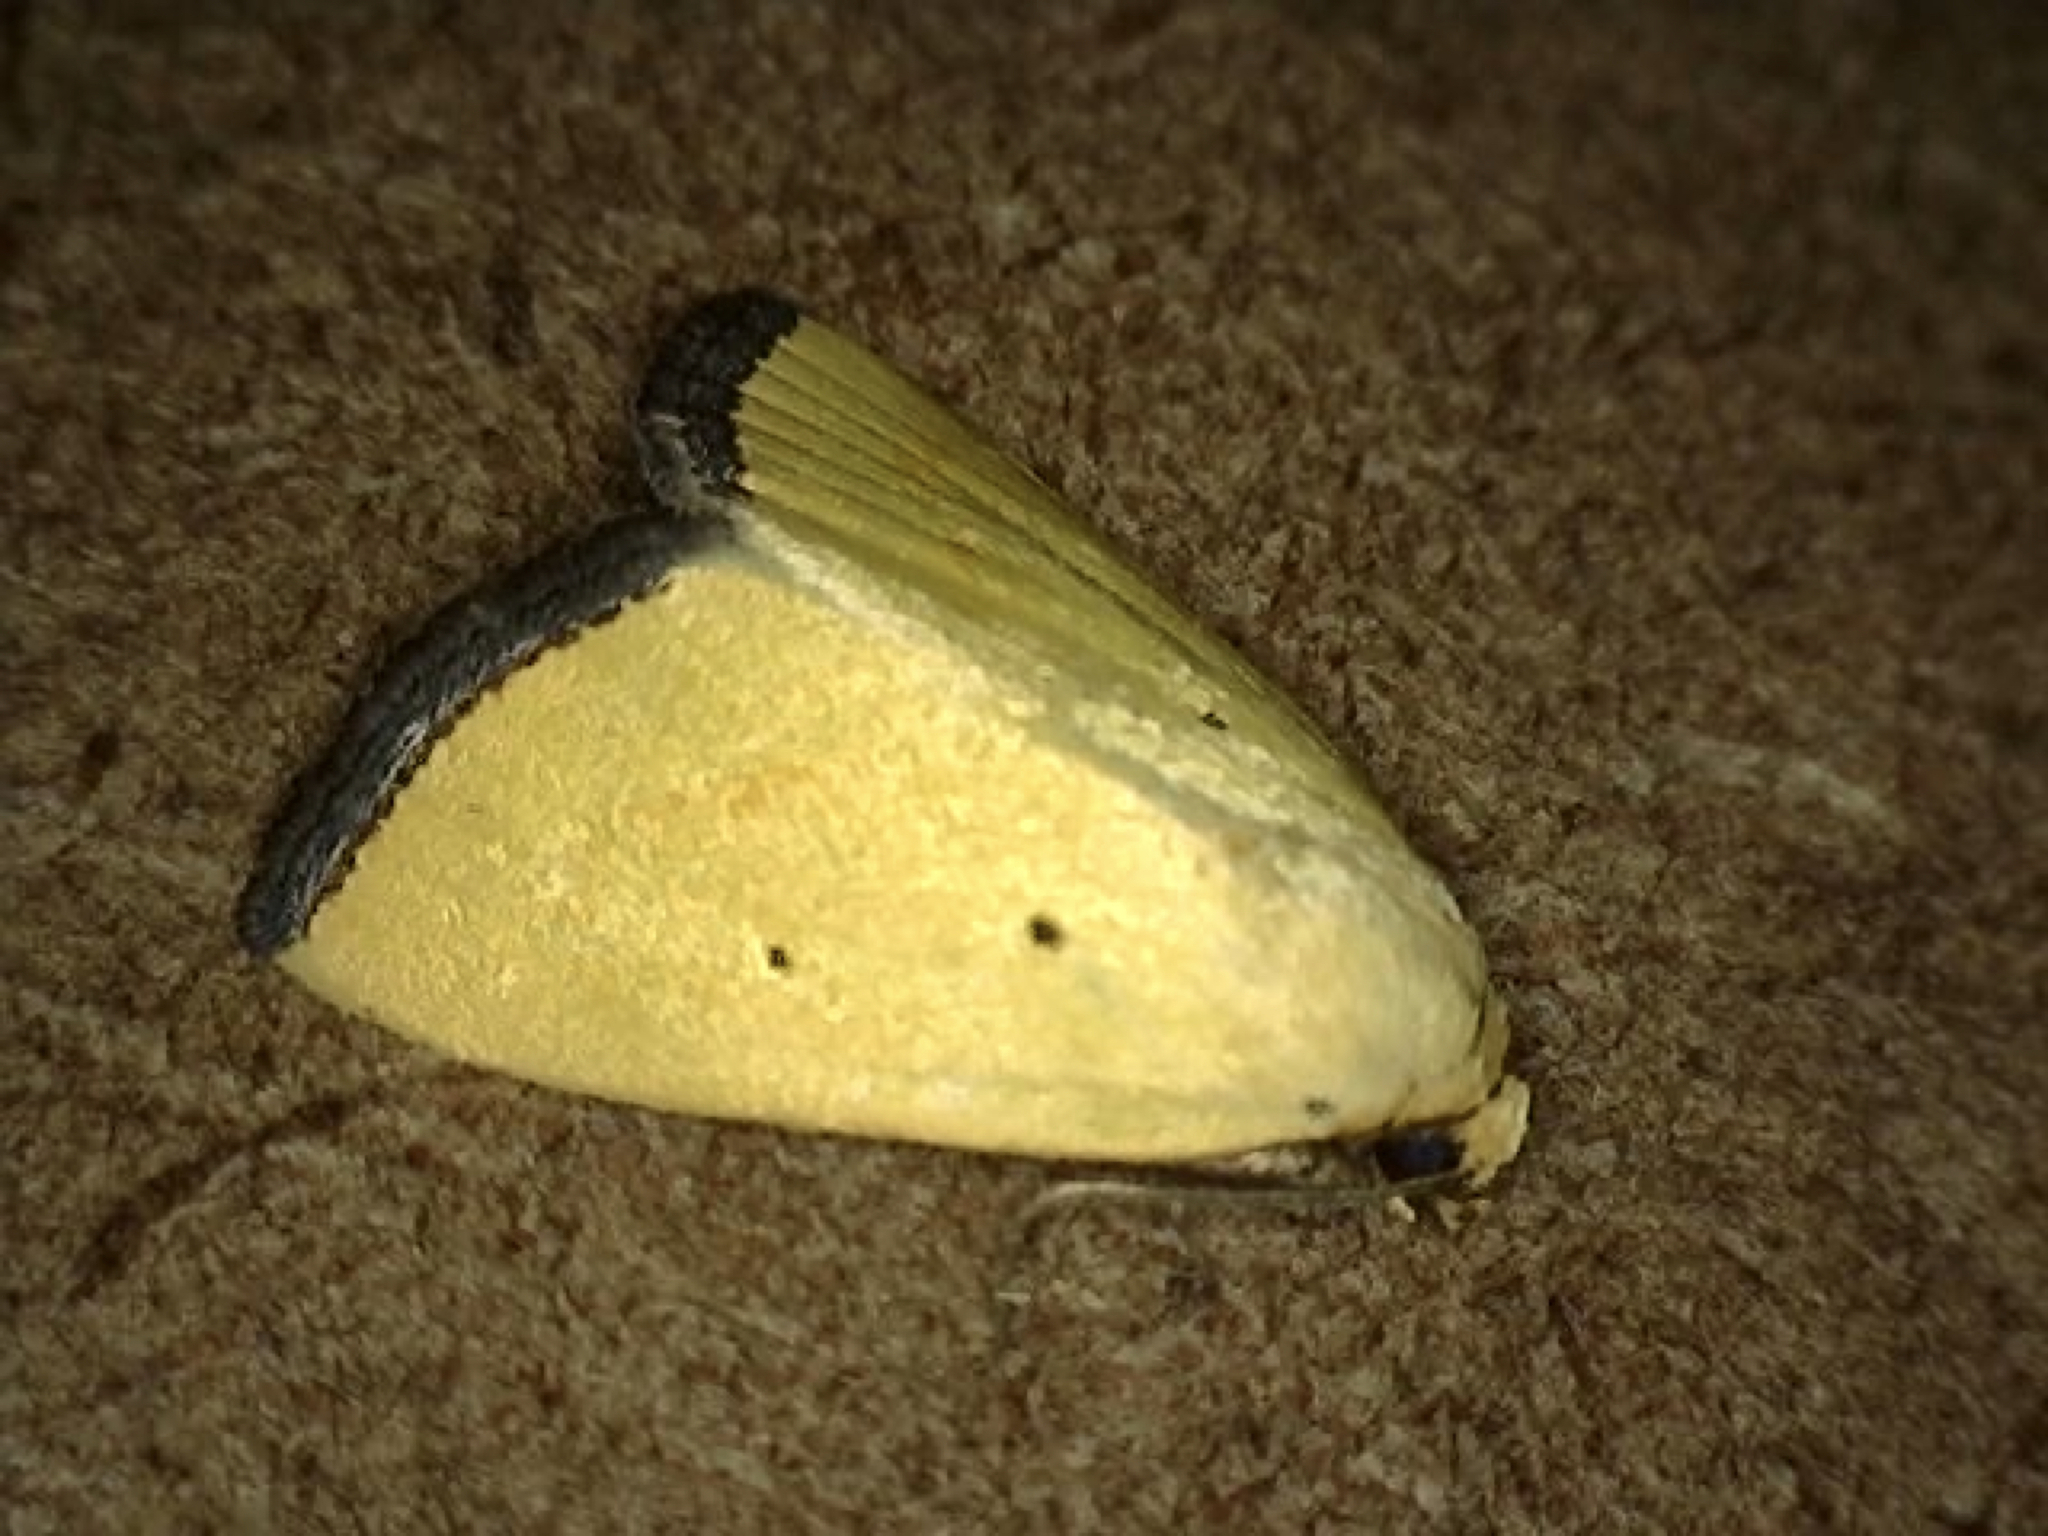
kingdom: Animalia
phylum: Arthropoda
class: Insecta
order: Lepidoptera
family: Noctuidae
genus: Marimatha
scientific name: Marimatha nigrofimbria
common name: Black-bordered lemon moth
